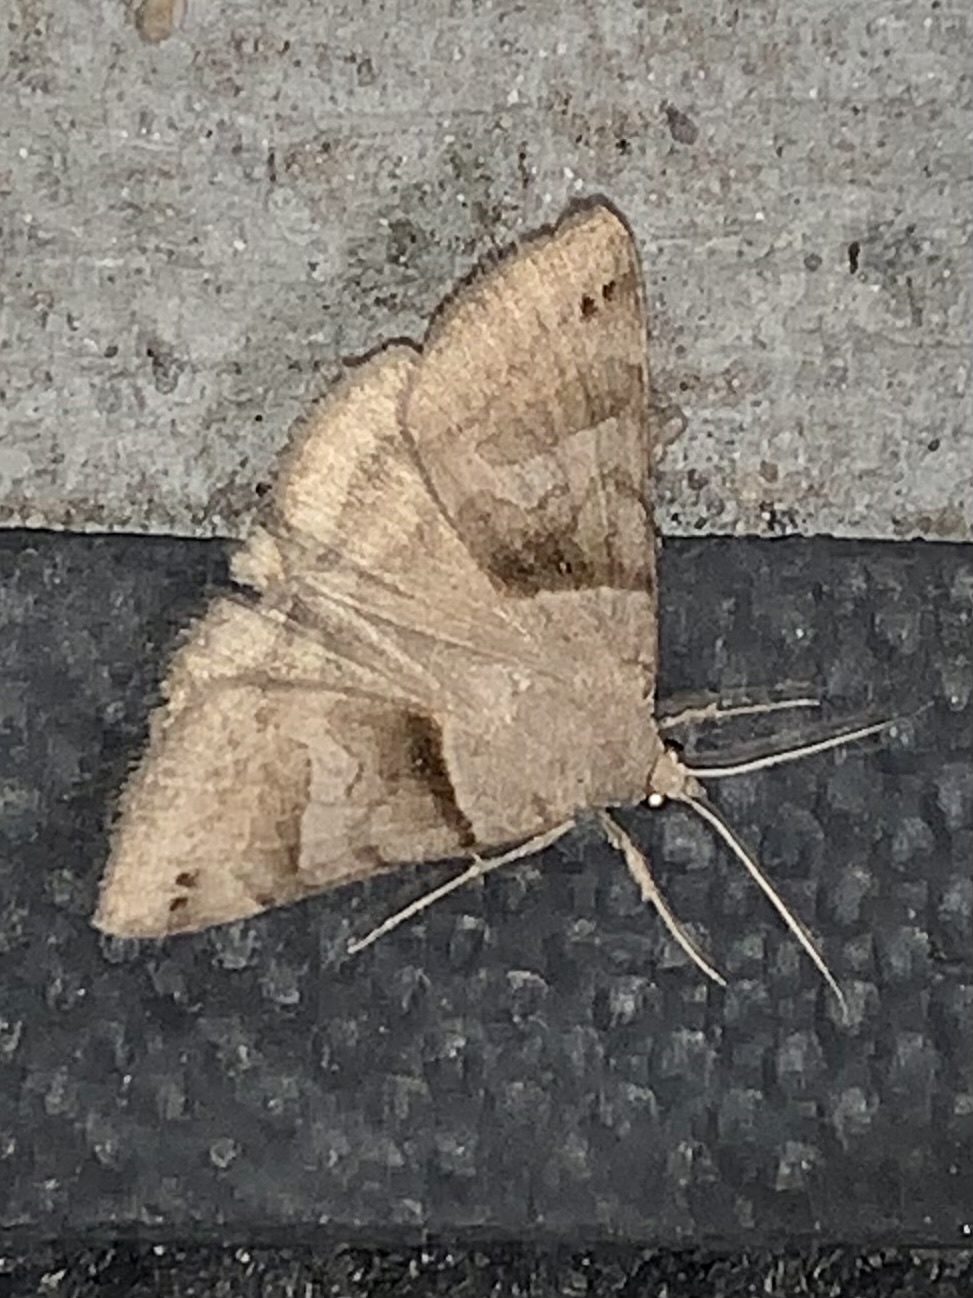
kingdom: Animalia
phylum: Arthropoda
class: Insecta
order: Lepidoptera
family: Erebidae
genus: Caenurgina
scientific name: Caenurgina crassiuscula
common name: Double-barred
